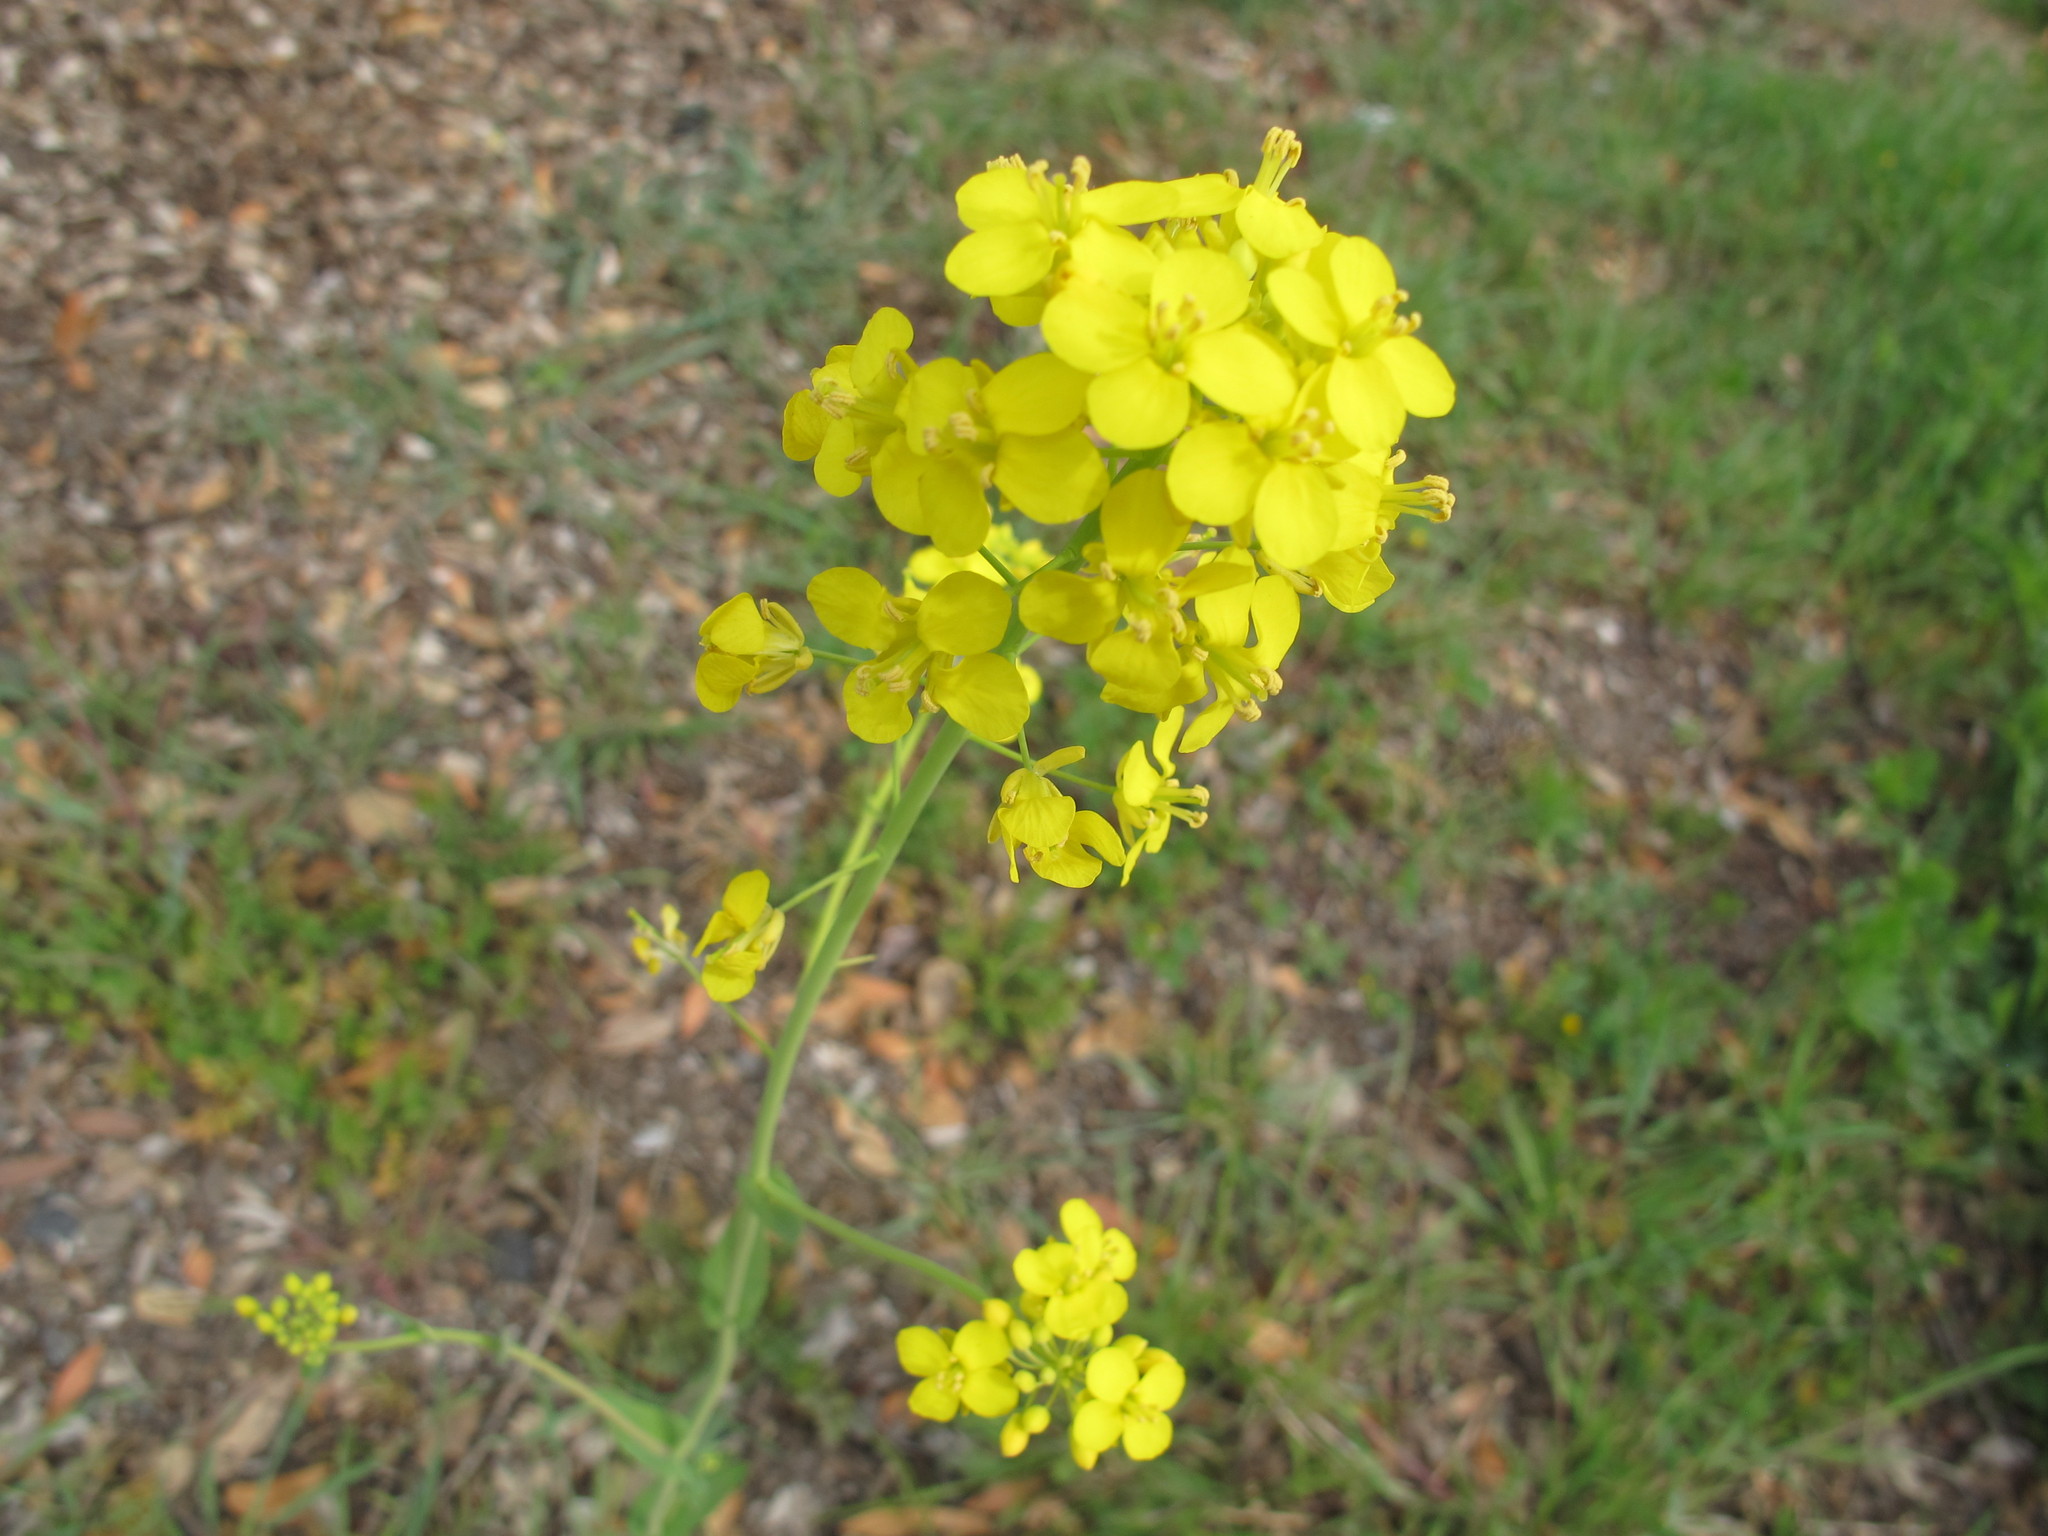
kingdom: Plantae
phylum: Tracheophyta
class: Magnoliopsida
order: Brassicales
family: Brassicaceae
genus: Brassica
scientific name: Brassica rapa
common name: Field mustard
